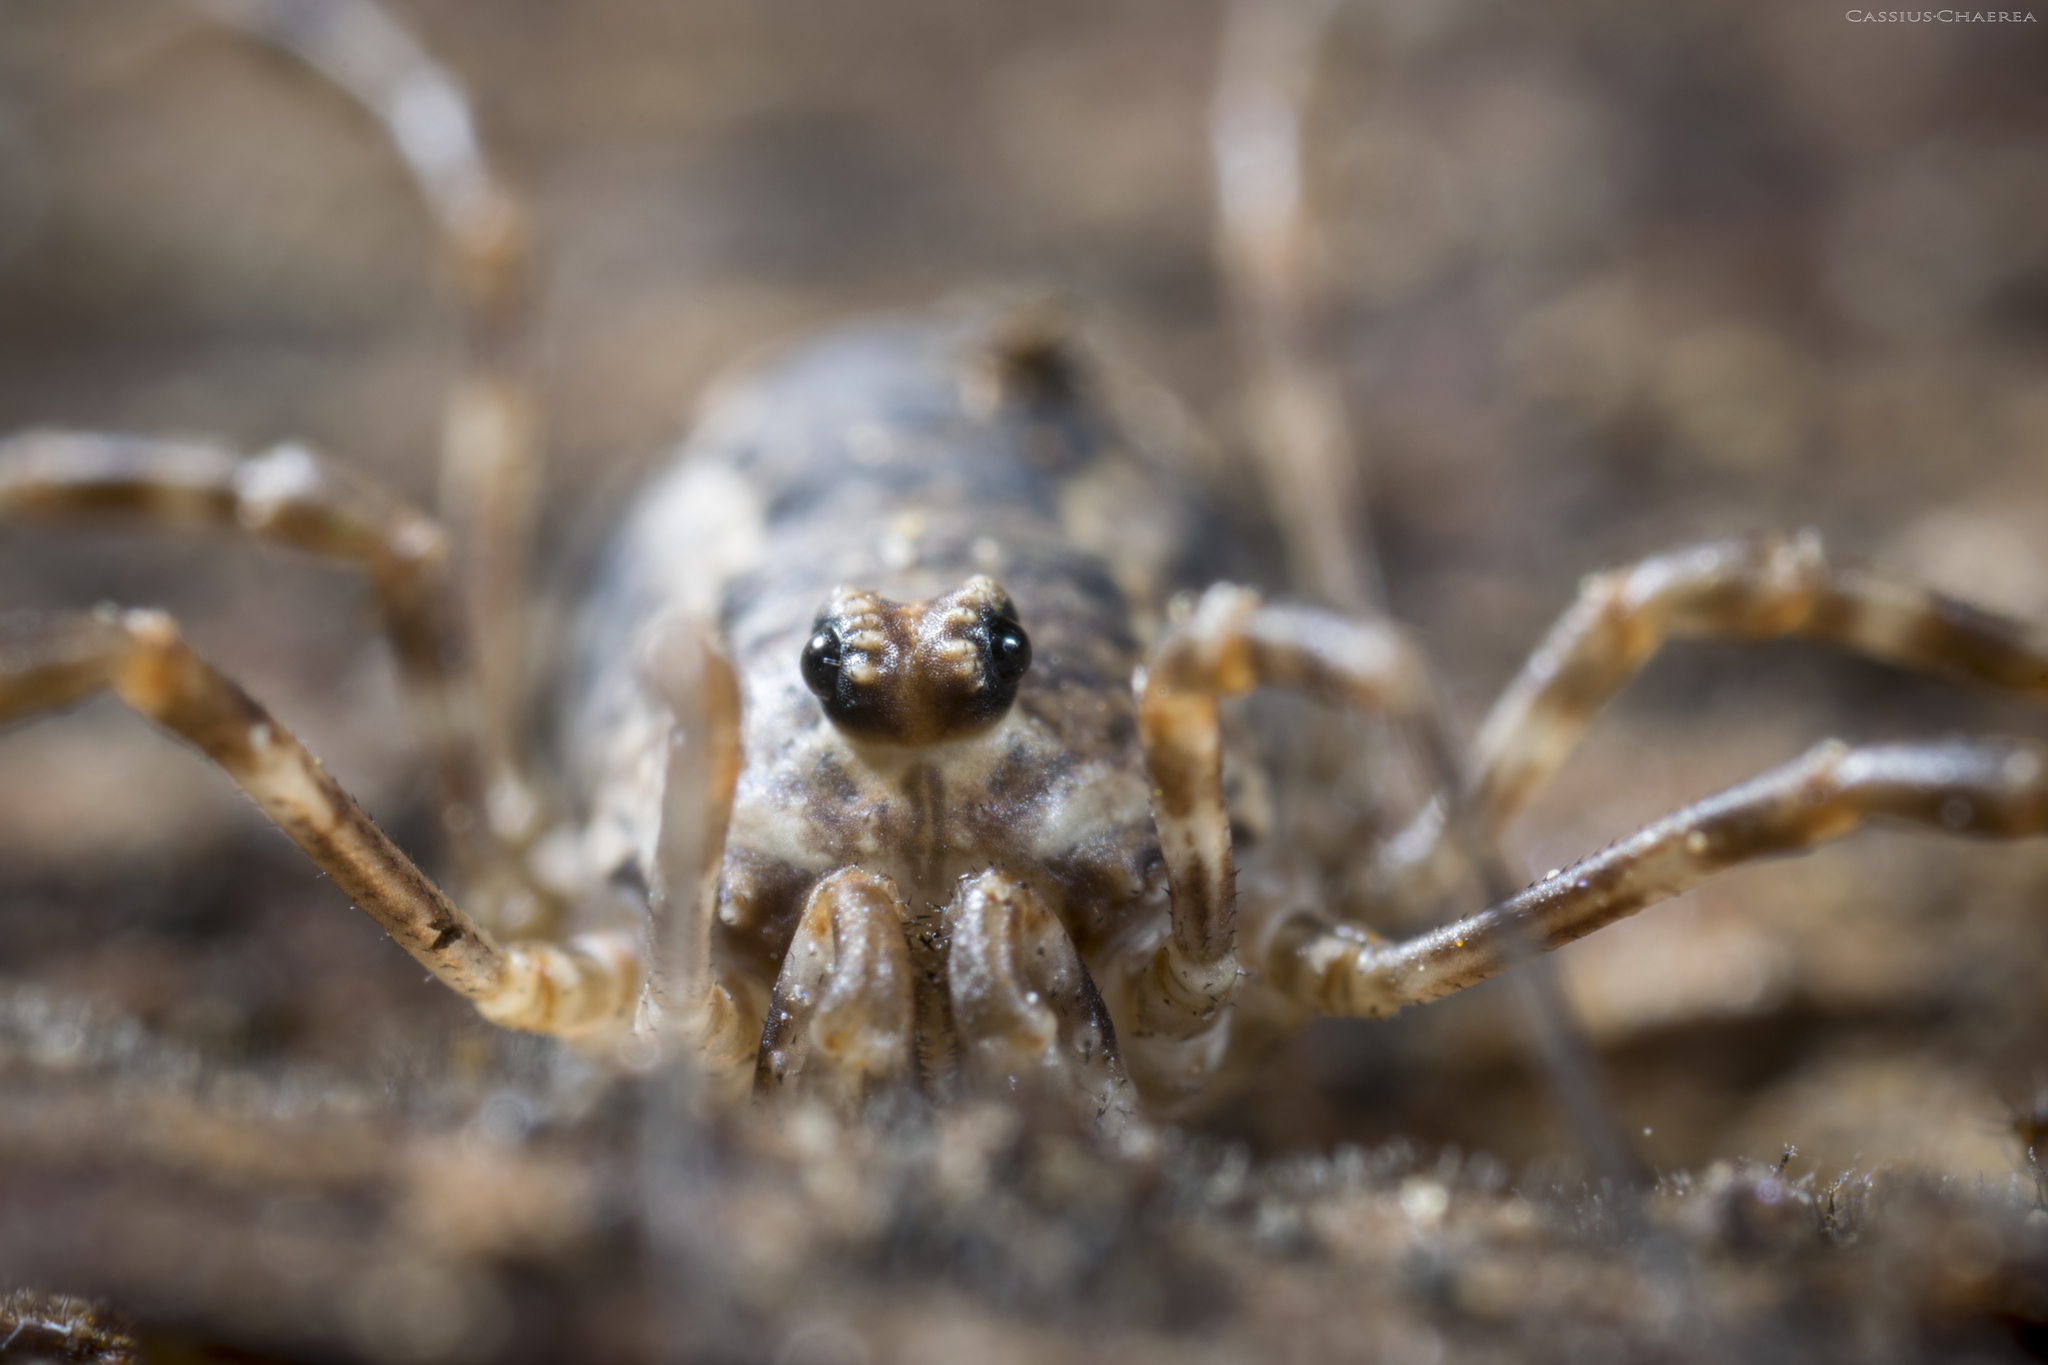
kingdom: Animalia
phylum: Arthropoda
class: Arachnida
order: Opiliones
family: Phalangiidae
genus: Rilaena
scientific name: Rilaena triangularis
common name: Spring harvestman
